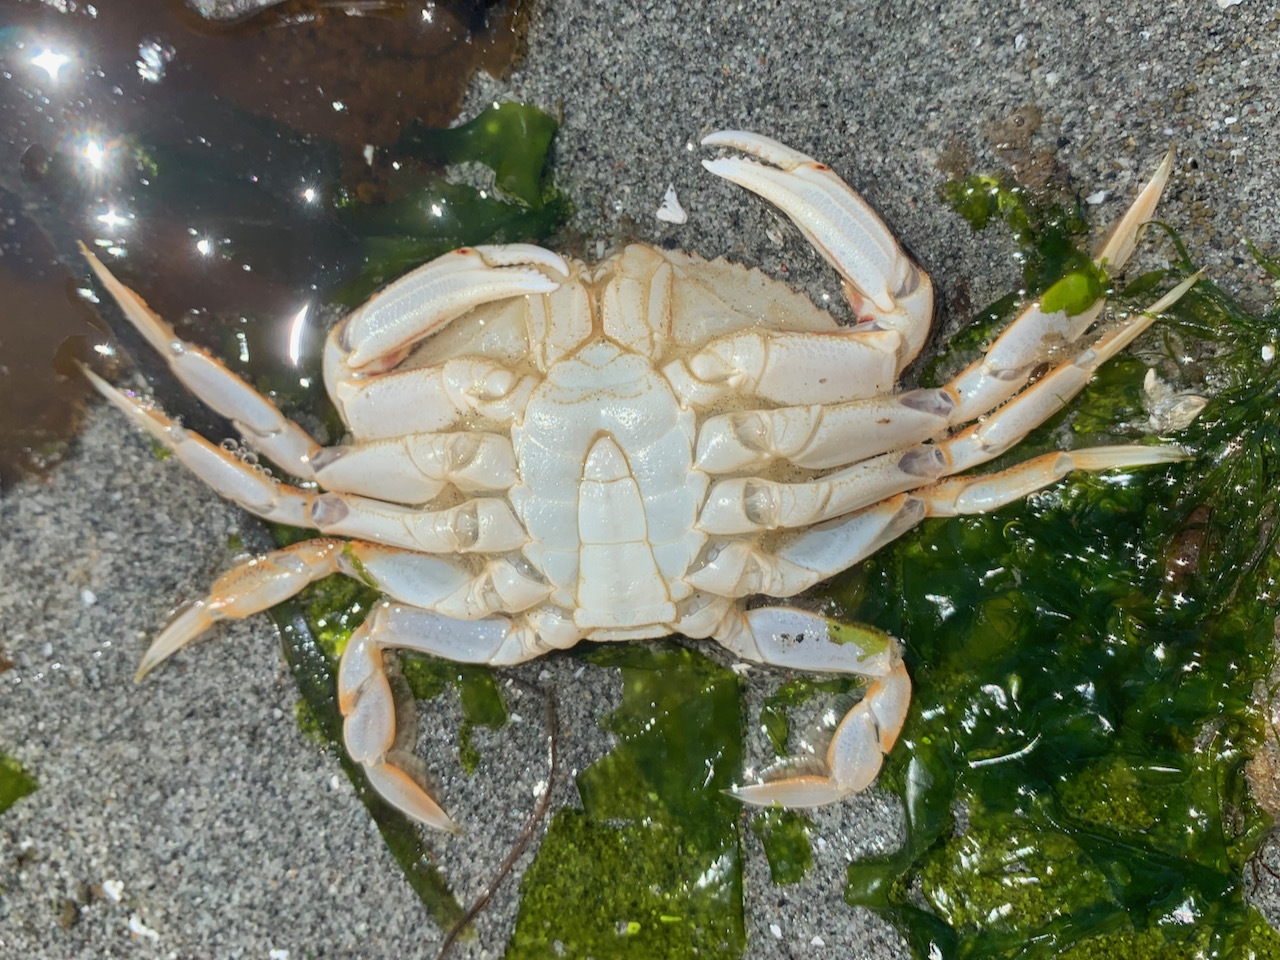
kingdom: Animalia
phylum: Arthropoda
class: Malacostraca
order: Decapoda
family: Cancridae
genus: Metacarcinus
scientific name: Metacarcinus magister
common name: Californian crab
